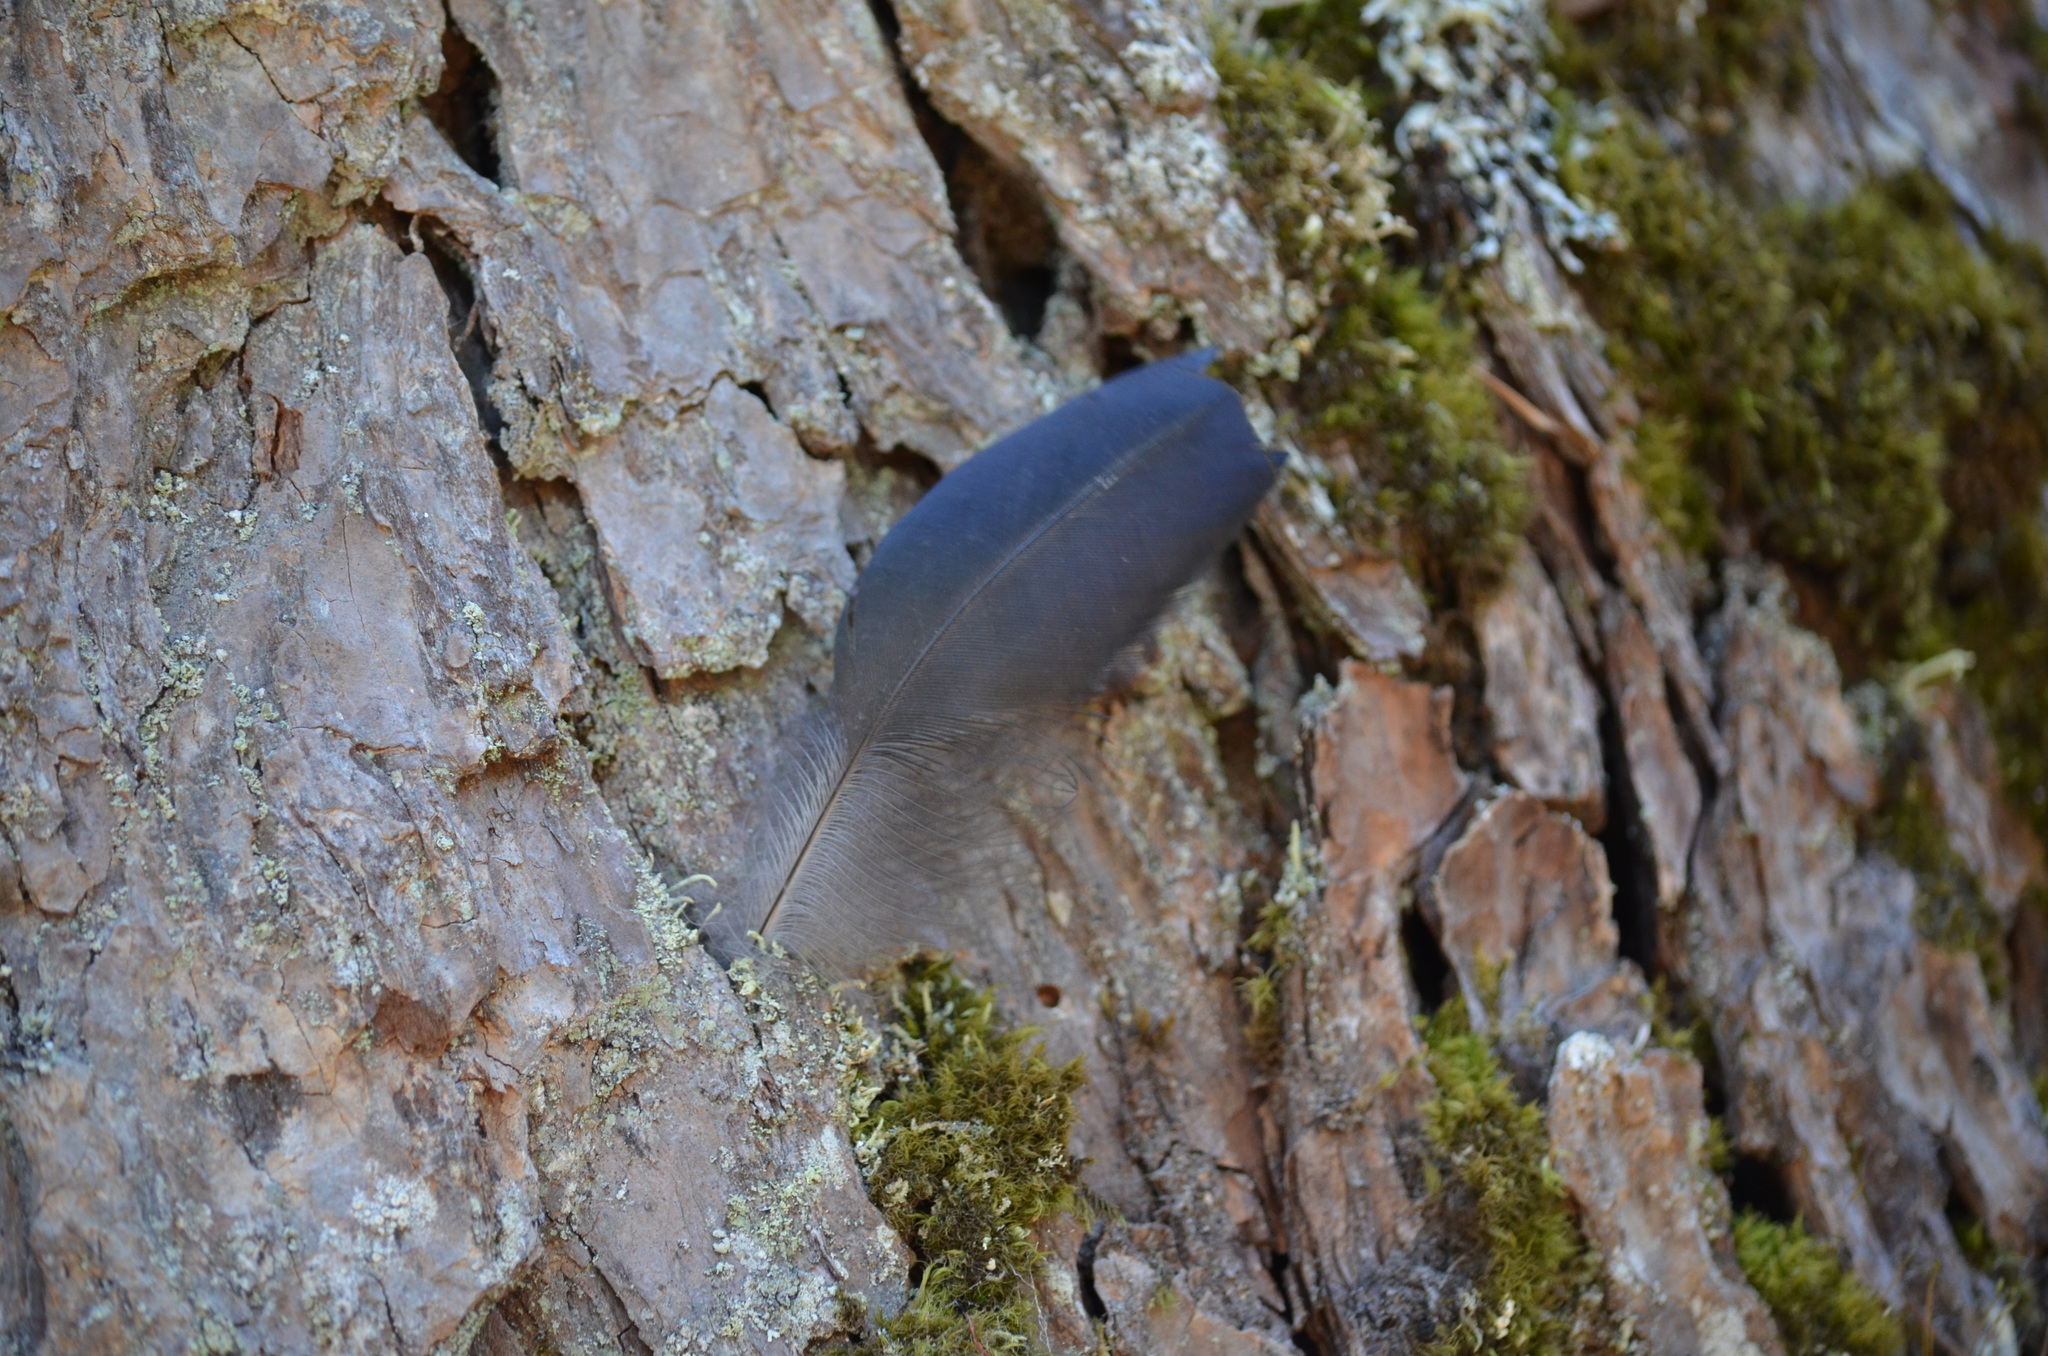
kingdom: Animalia
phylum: Chordata
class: Aves
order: Passeriformes
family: Corvidae
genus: Cyanocitta
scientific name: Cyanocitta stelleri
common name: Steller's jay
